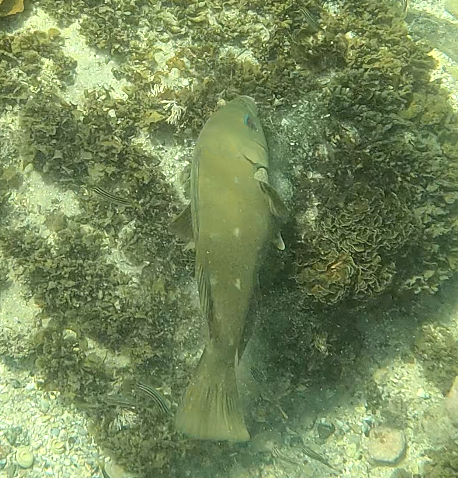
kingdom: Animalia
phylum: Chordata
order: Perciformes
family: Labridae
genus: Achoerodus
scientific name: Achoerodus viridis
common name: Brown groper
